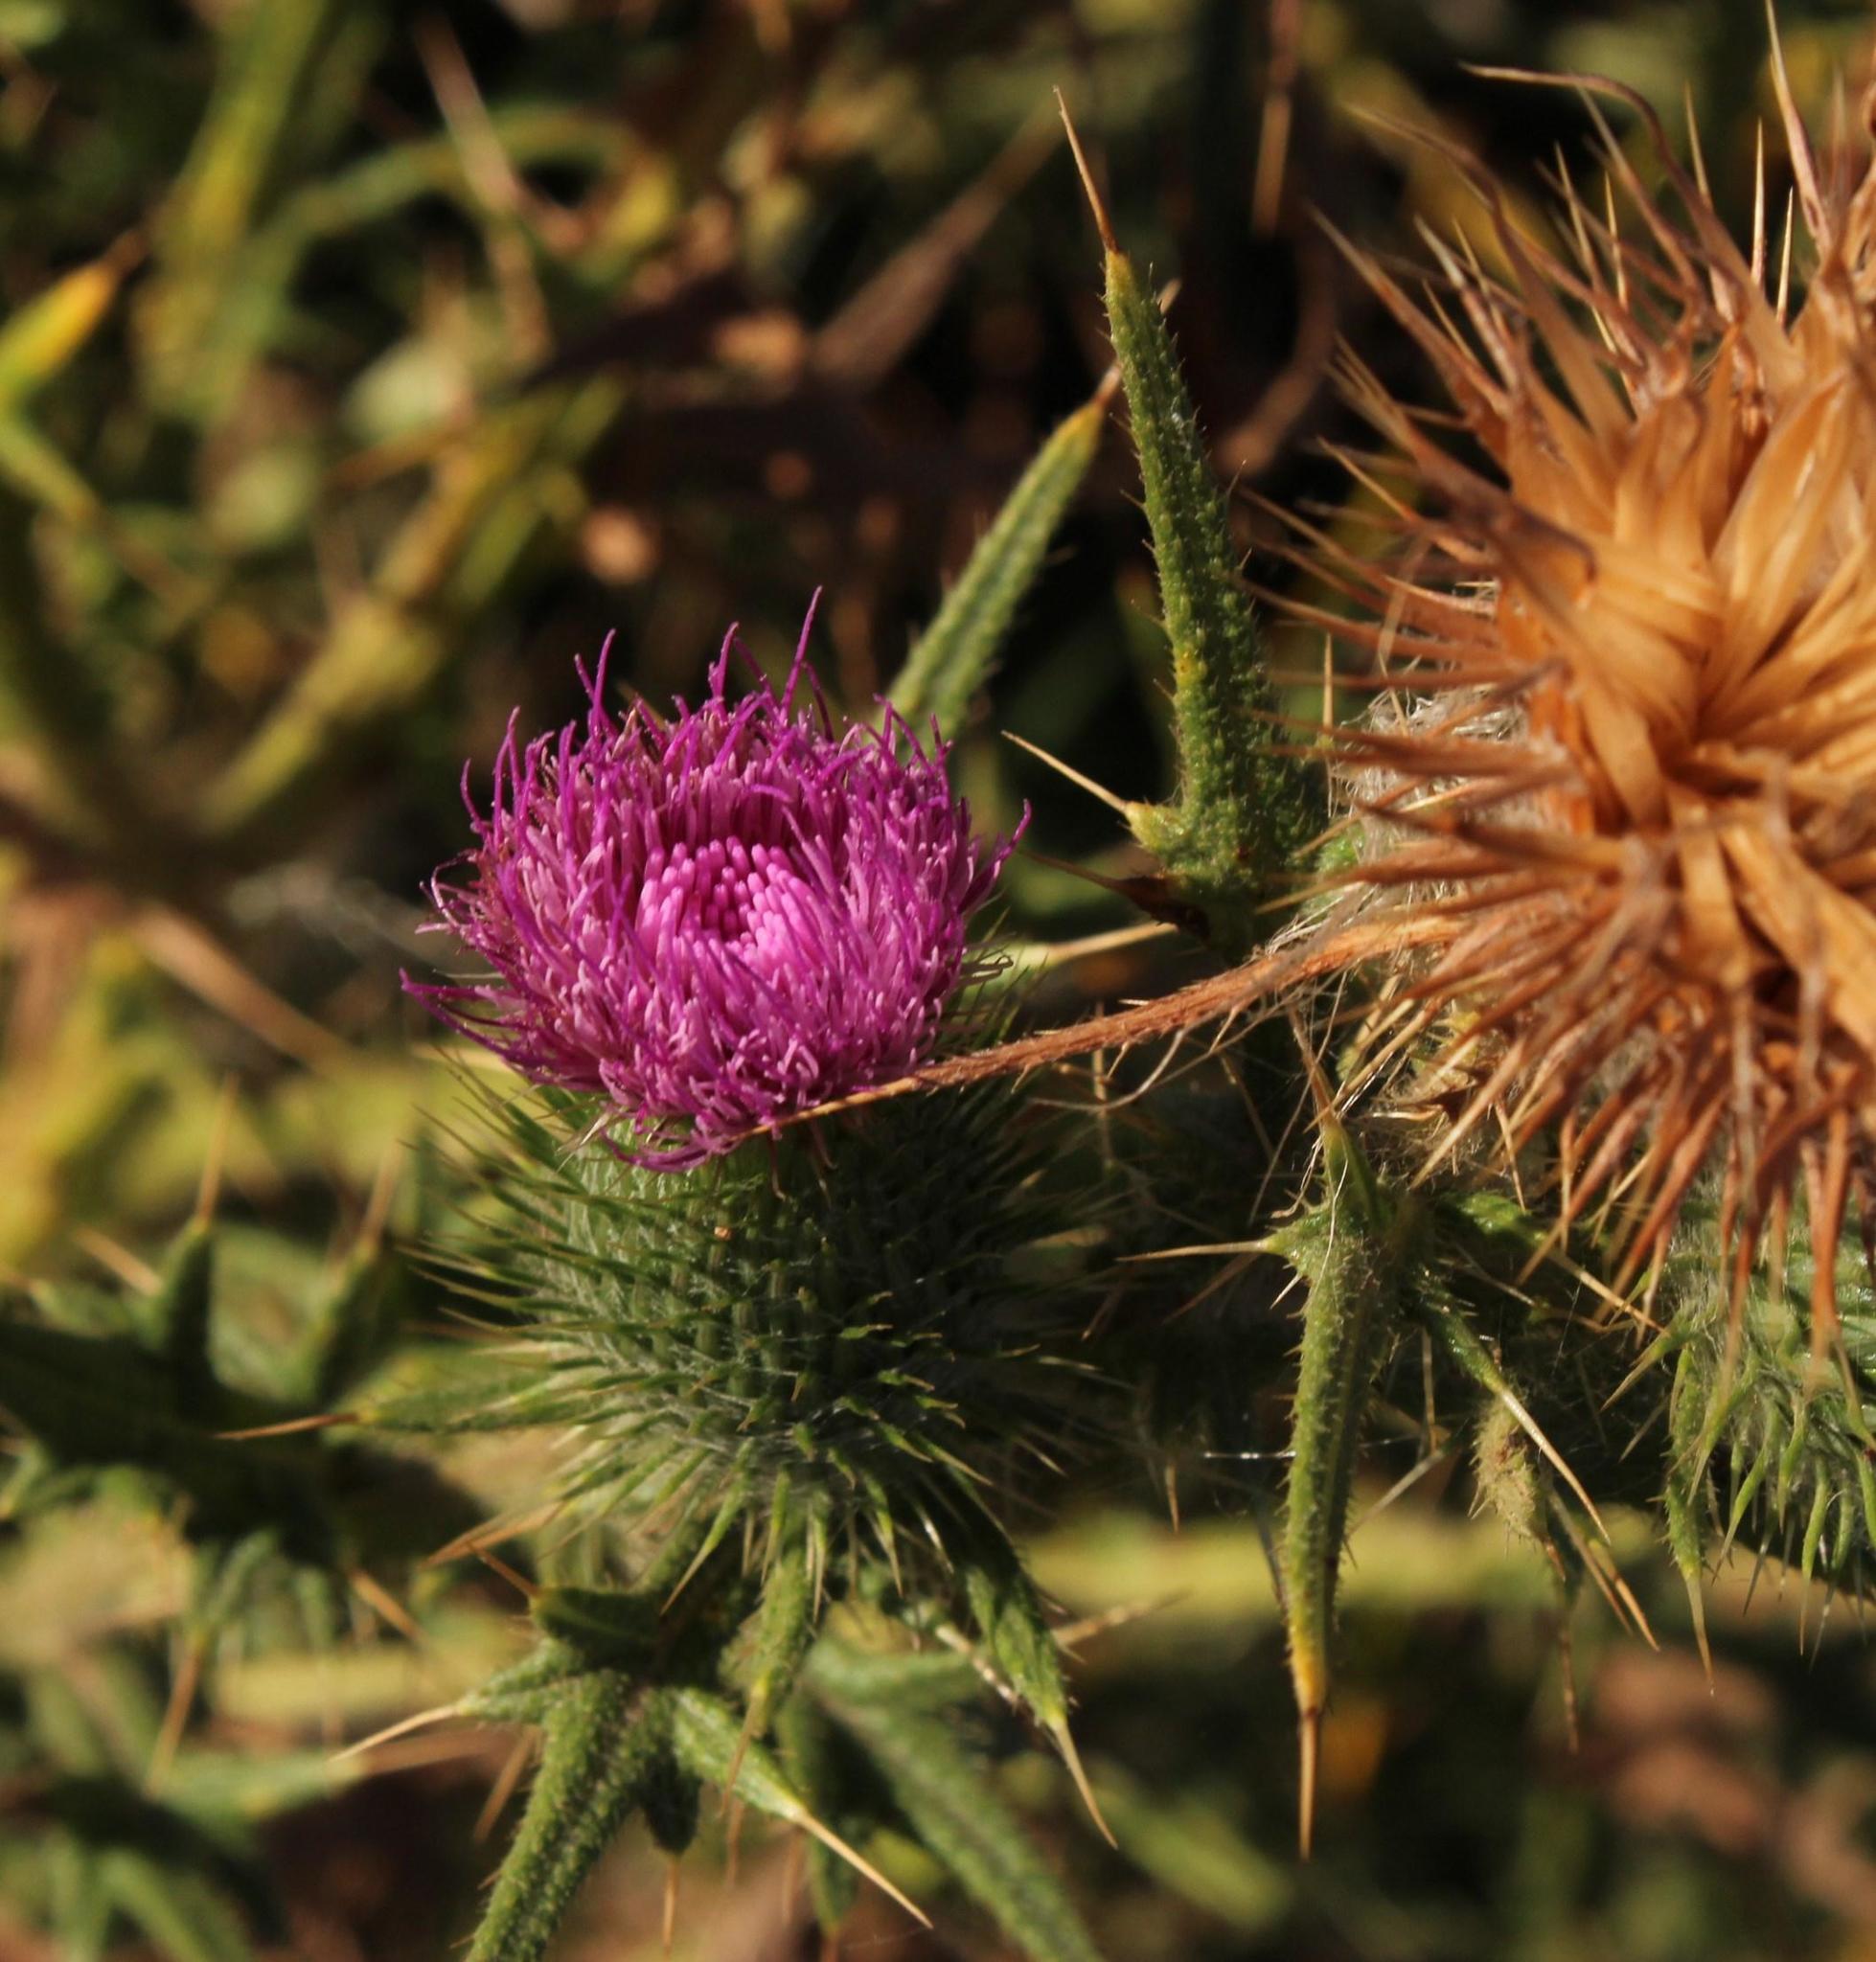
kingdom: Plantae
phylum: Tracheophyta
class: Magnoliopsida
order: Asterales
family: Asteraceae
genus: Cirsium
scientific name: Cirsium vulgare
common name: Bull thistle
